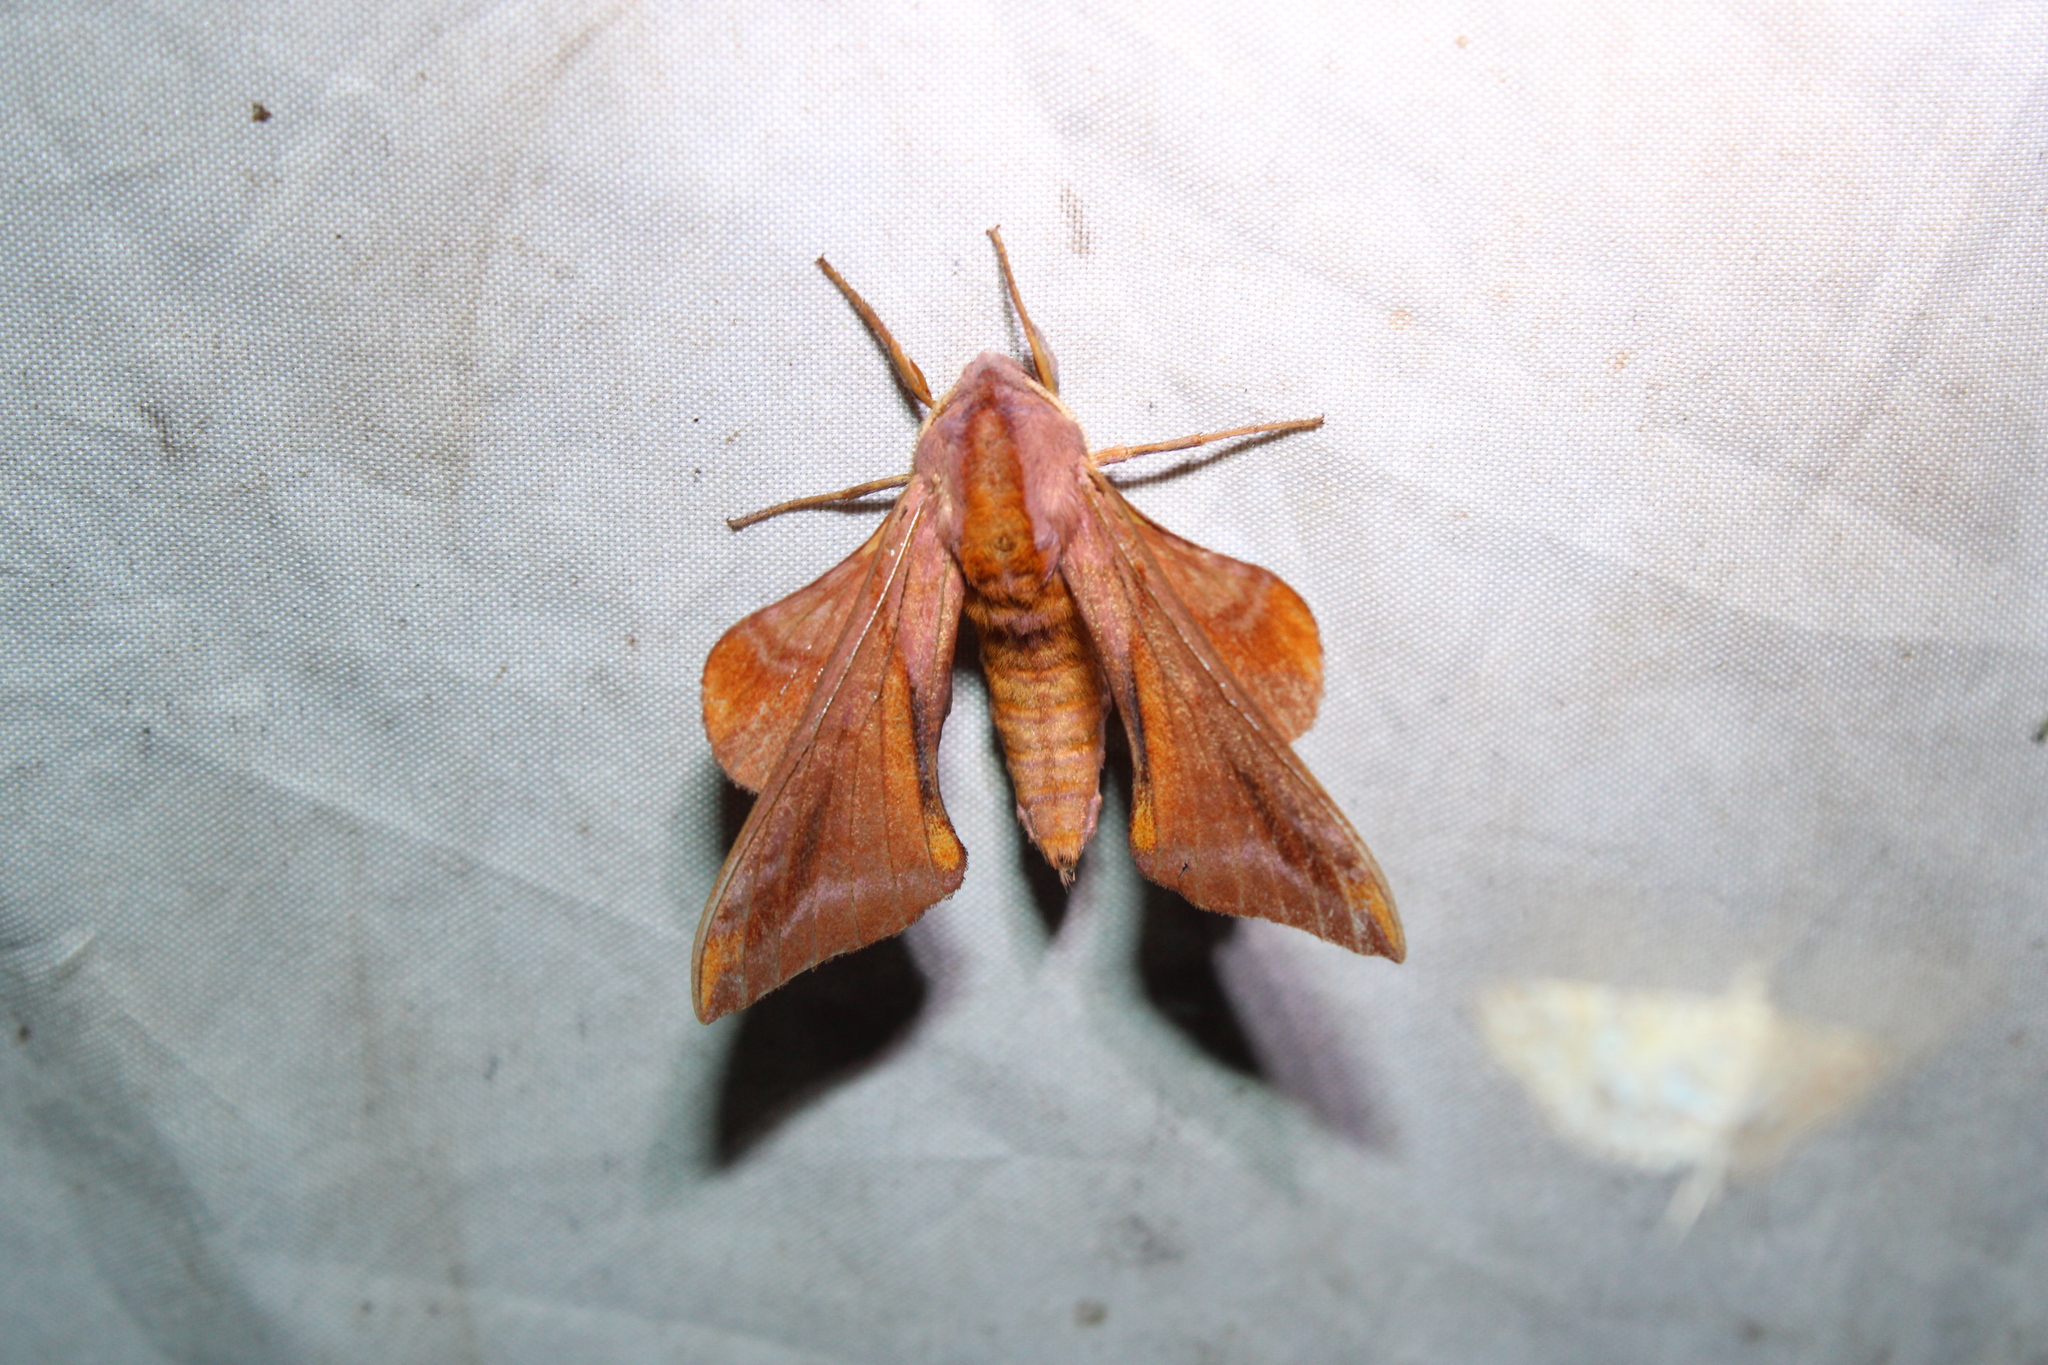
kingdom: Animalia
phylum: Arthropoda
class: Insecta
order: Lepidoptera
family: Sphingidae
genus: Paonias
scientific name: Paonias astylus
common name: Huckleberry sphinx
